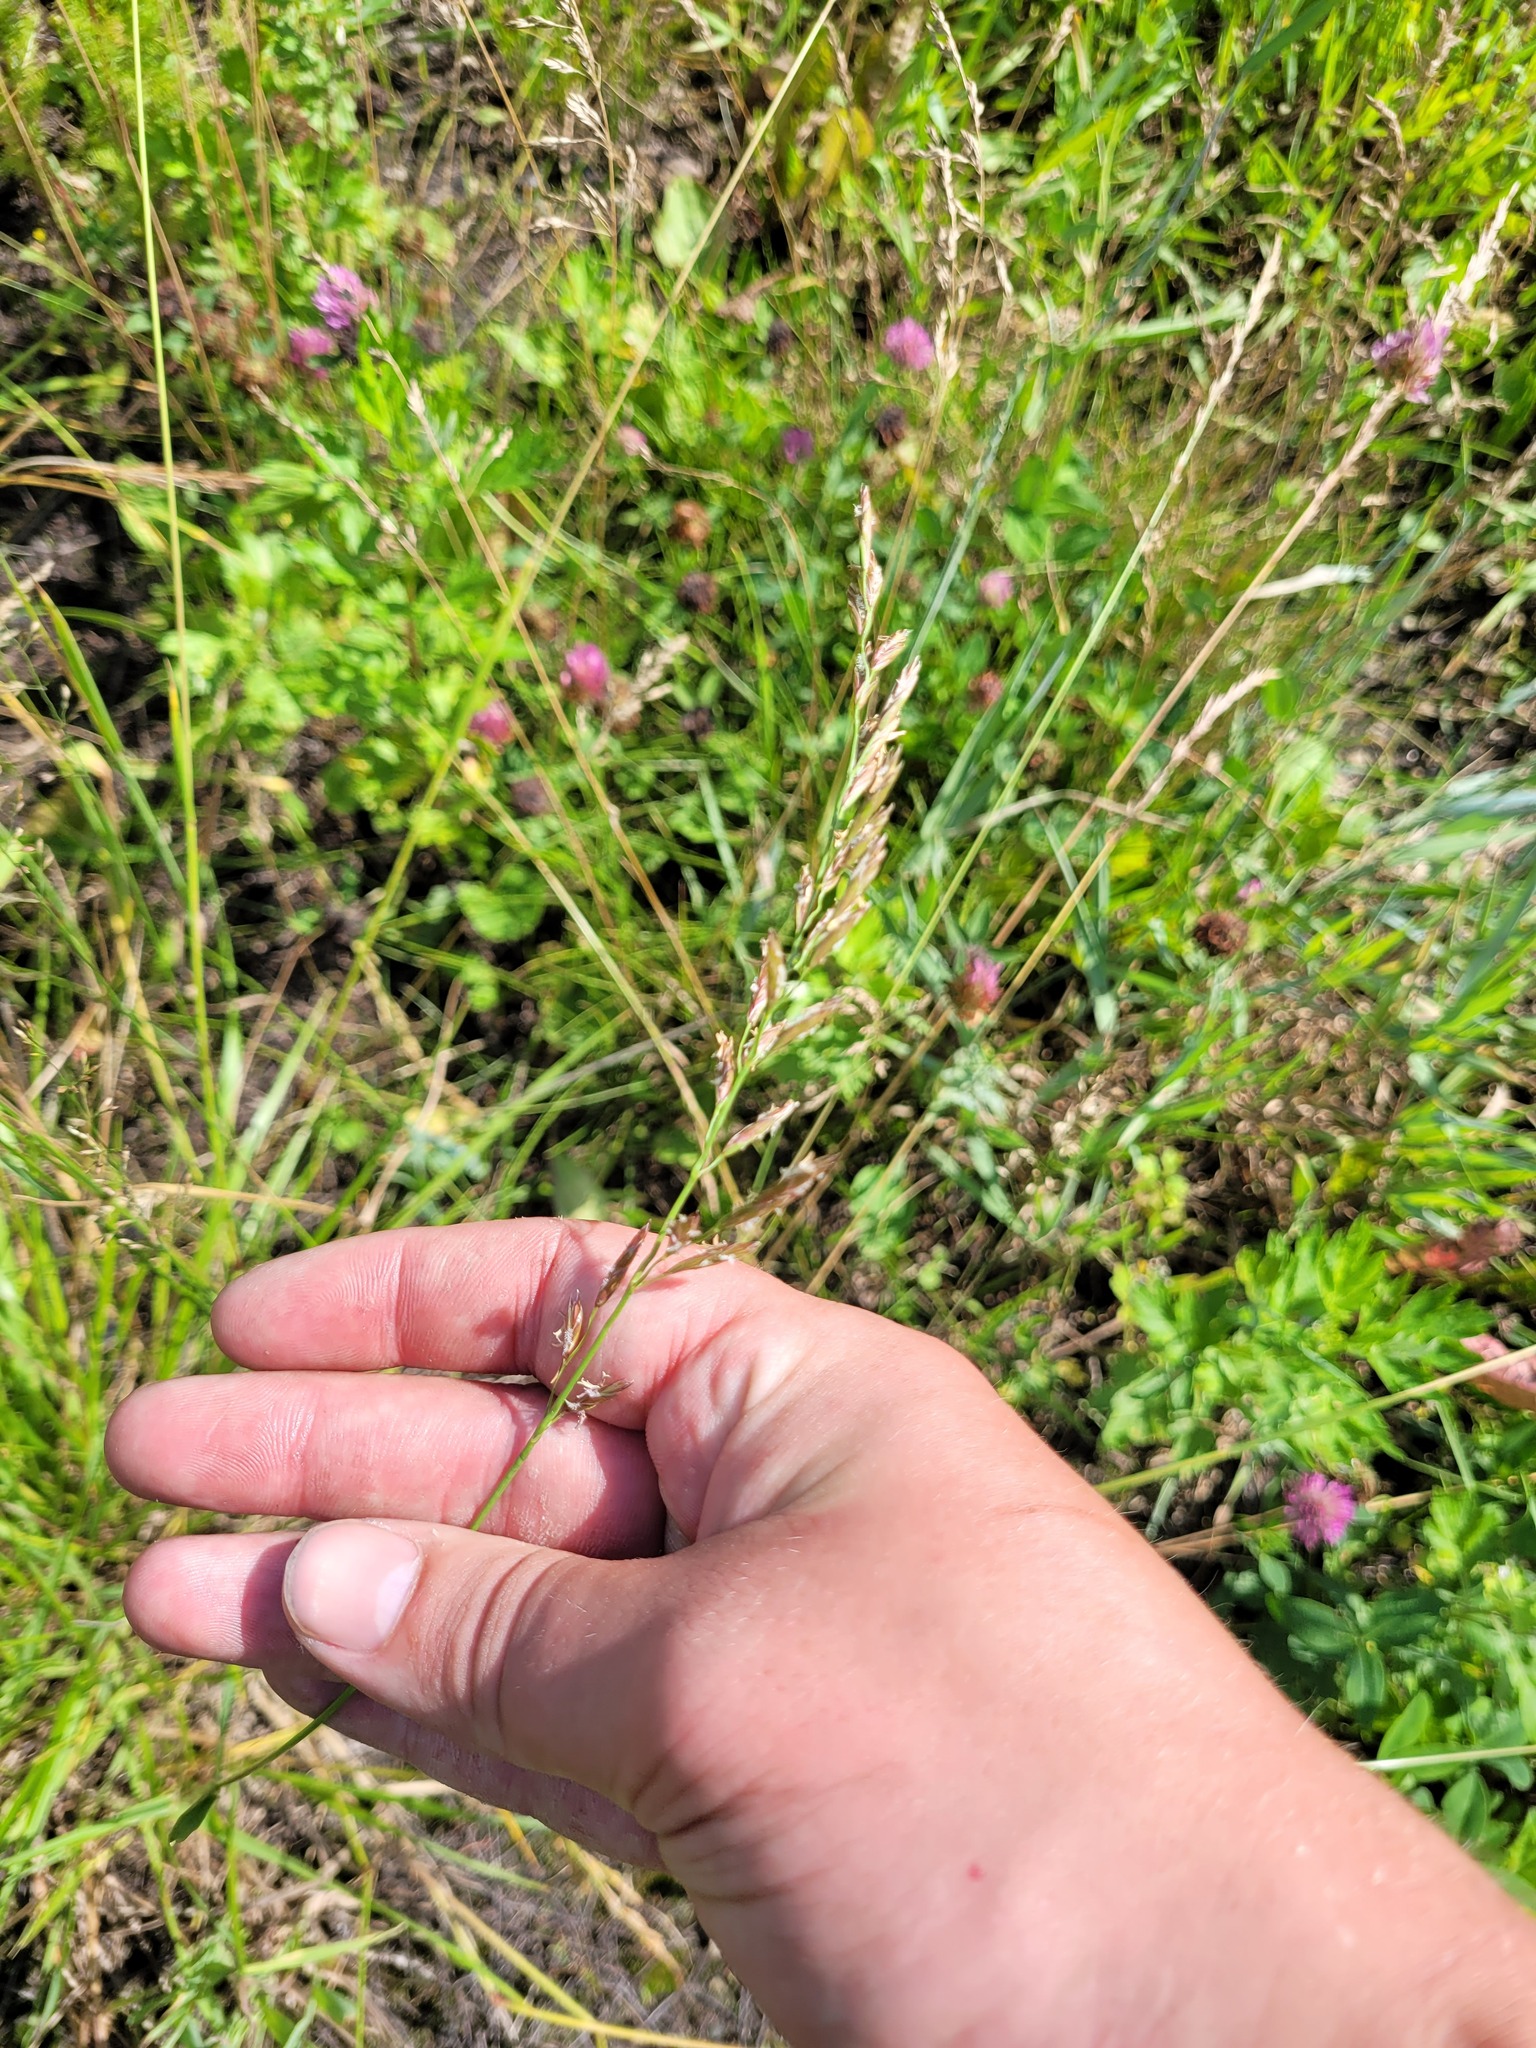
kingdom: Plantae
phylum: Tracheophyta
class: Liliopsida
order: Poales
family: Poaceae
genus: Lolium
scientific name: Lolium pratense
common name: Dover grass
